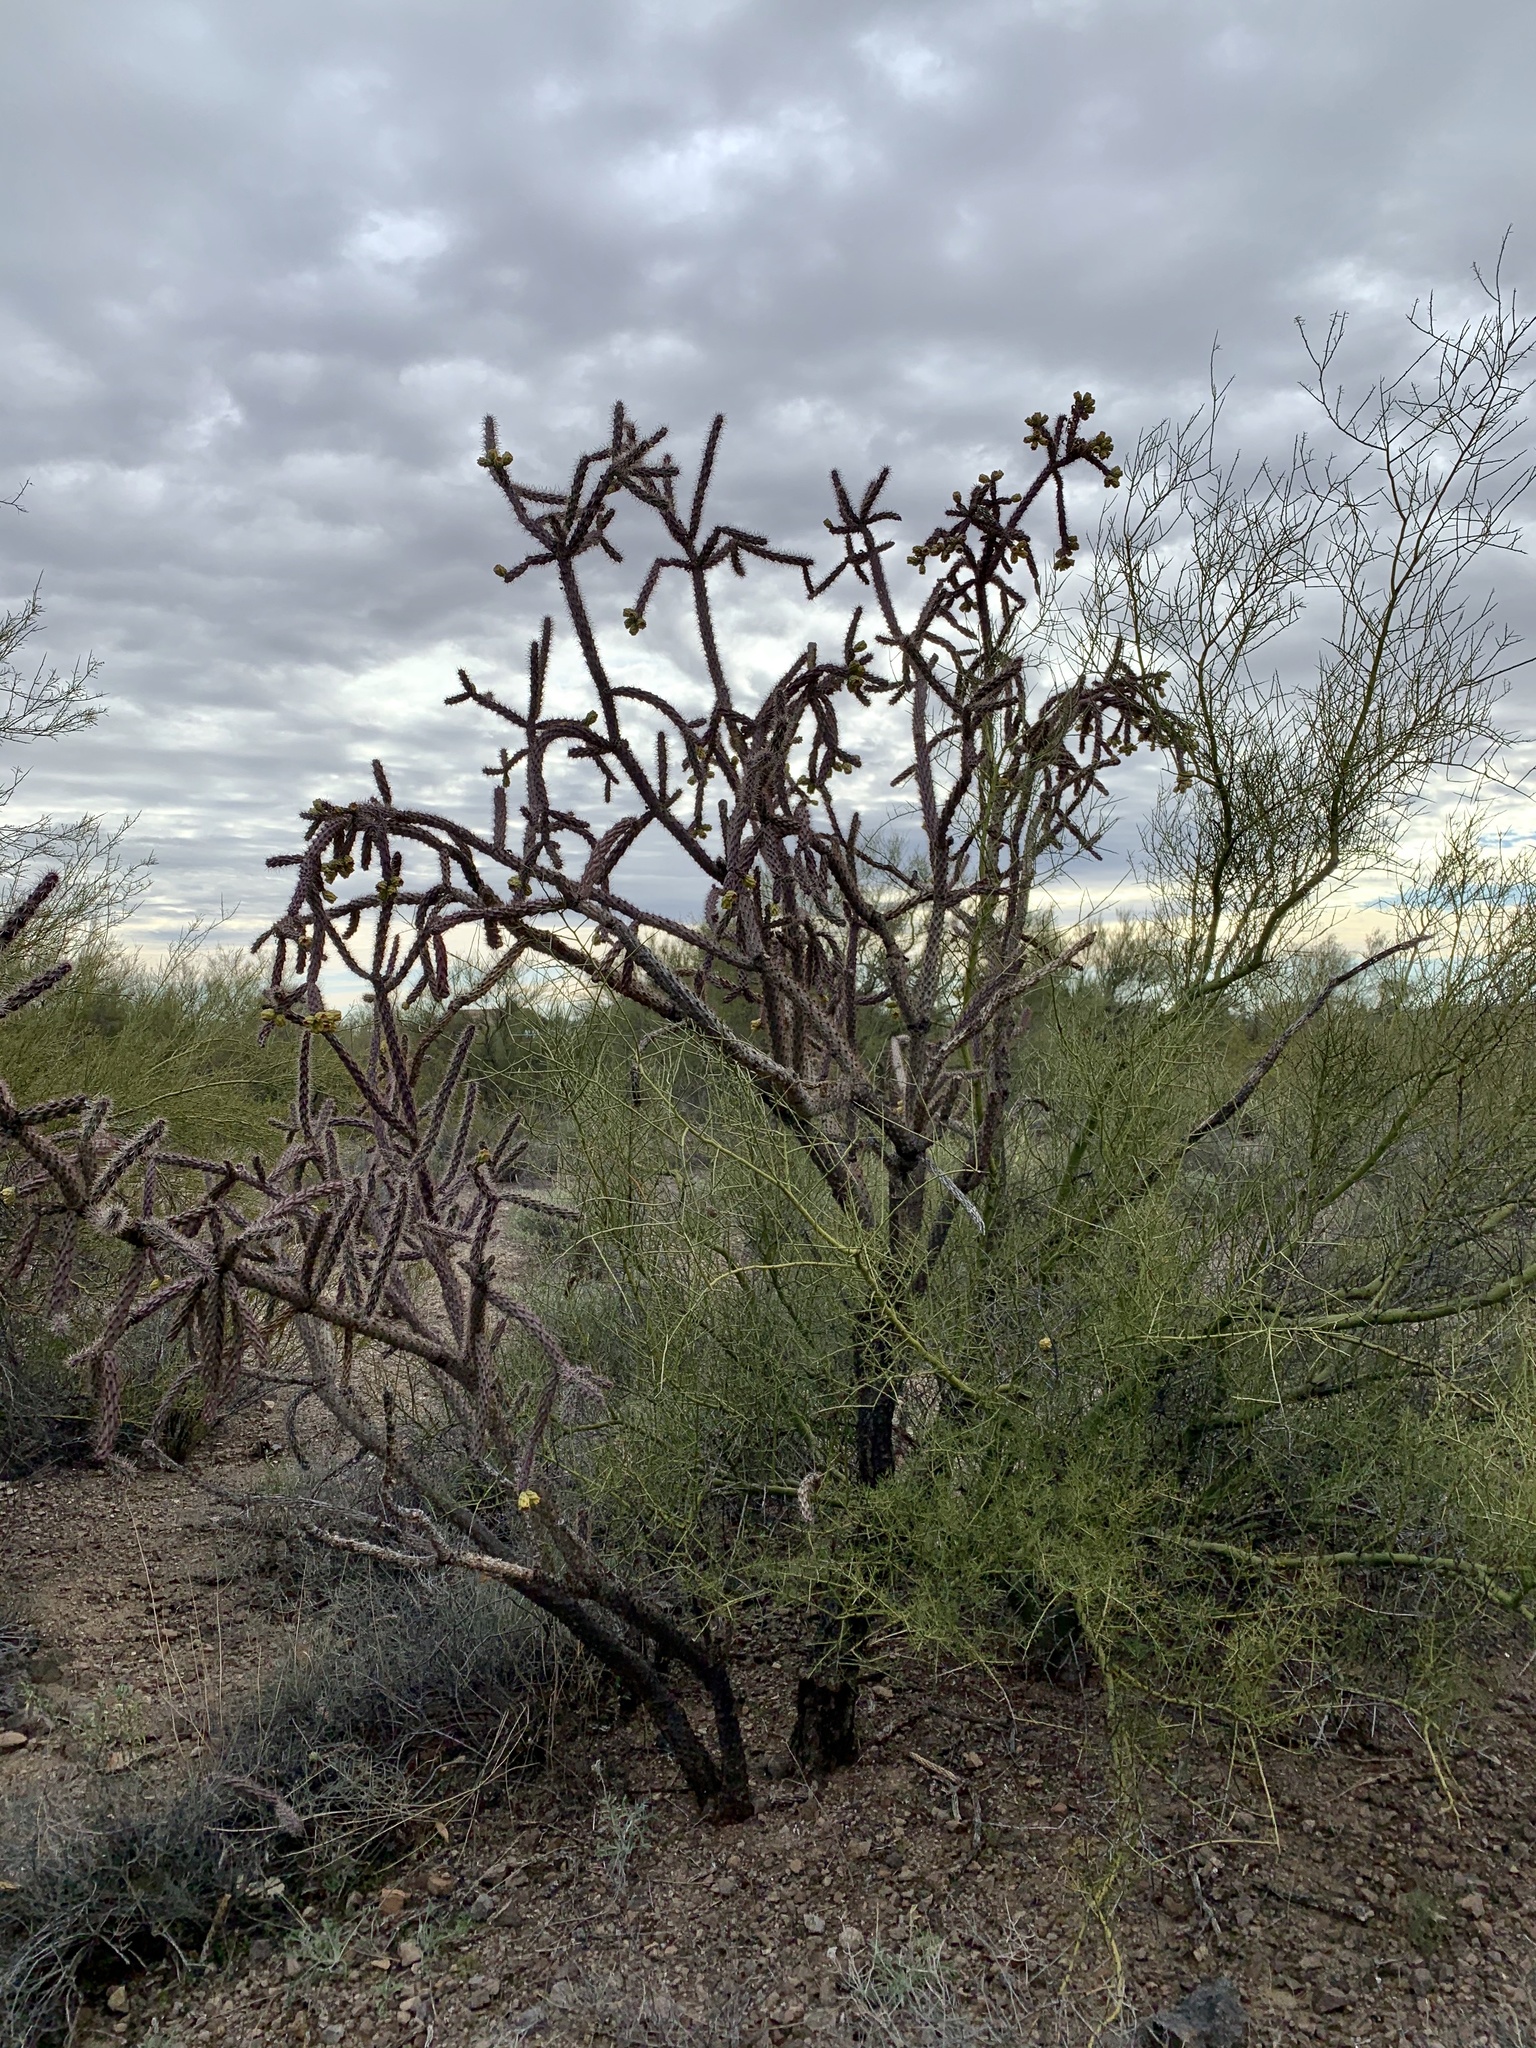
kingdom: Plantae
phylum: Tracheophyta
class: Magnoliopsida
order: Caryophyllales
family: Cactaceae
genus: Cylindropuntia
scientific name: Cylindropuntia imbricata
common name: Candelabrum cactus
